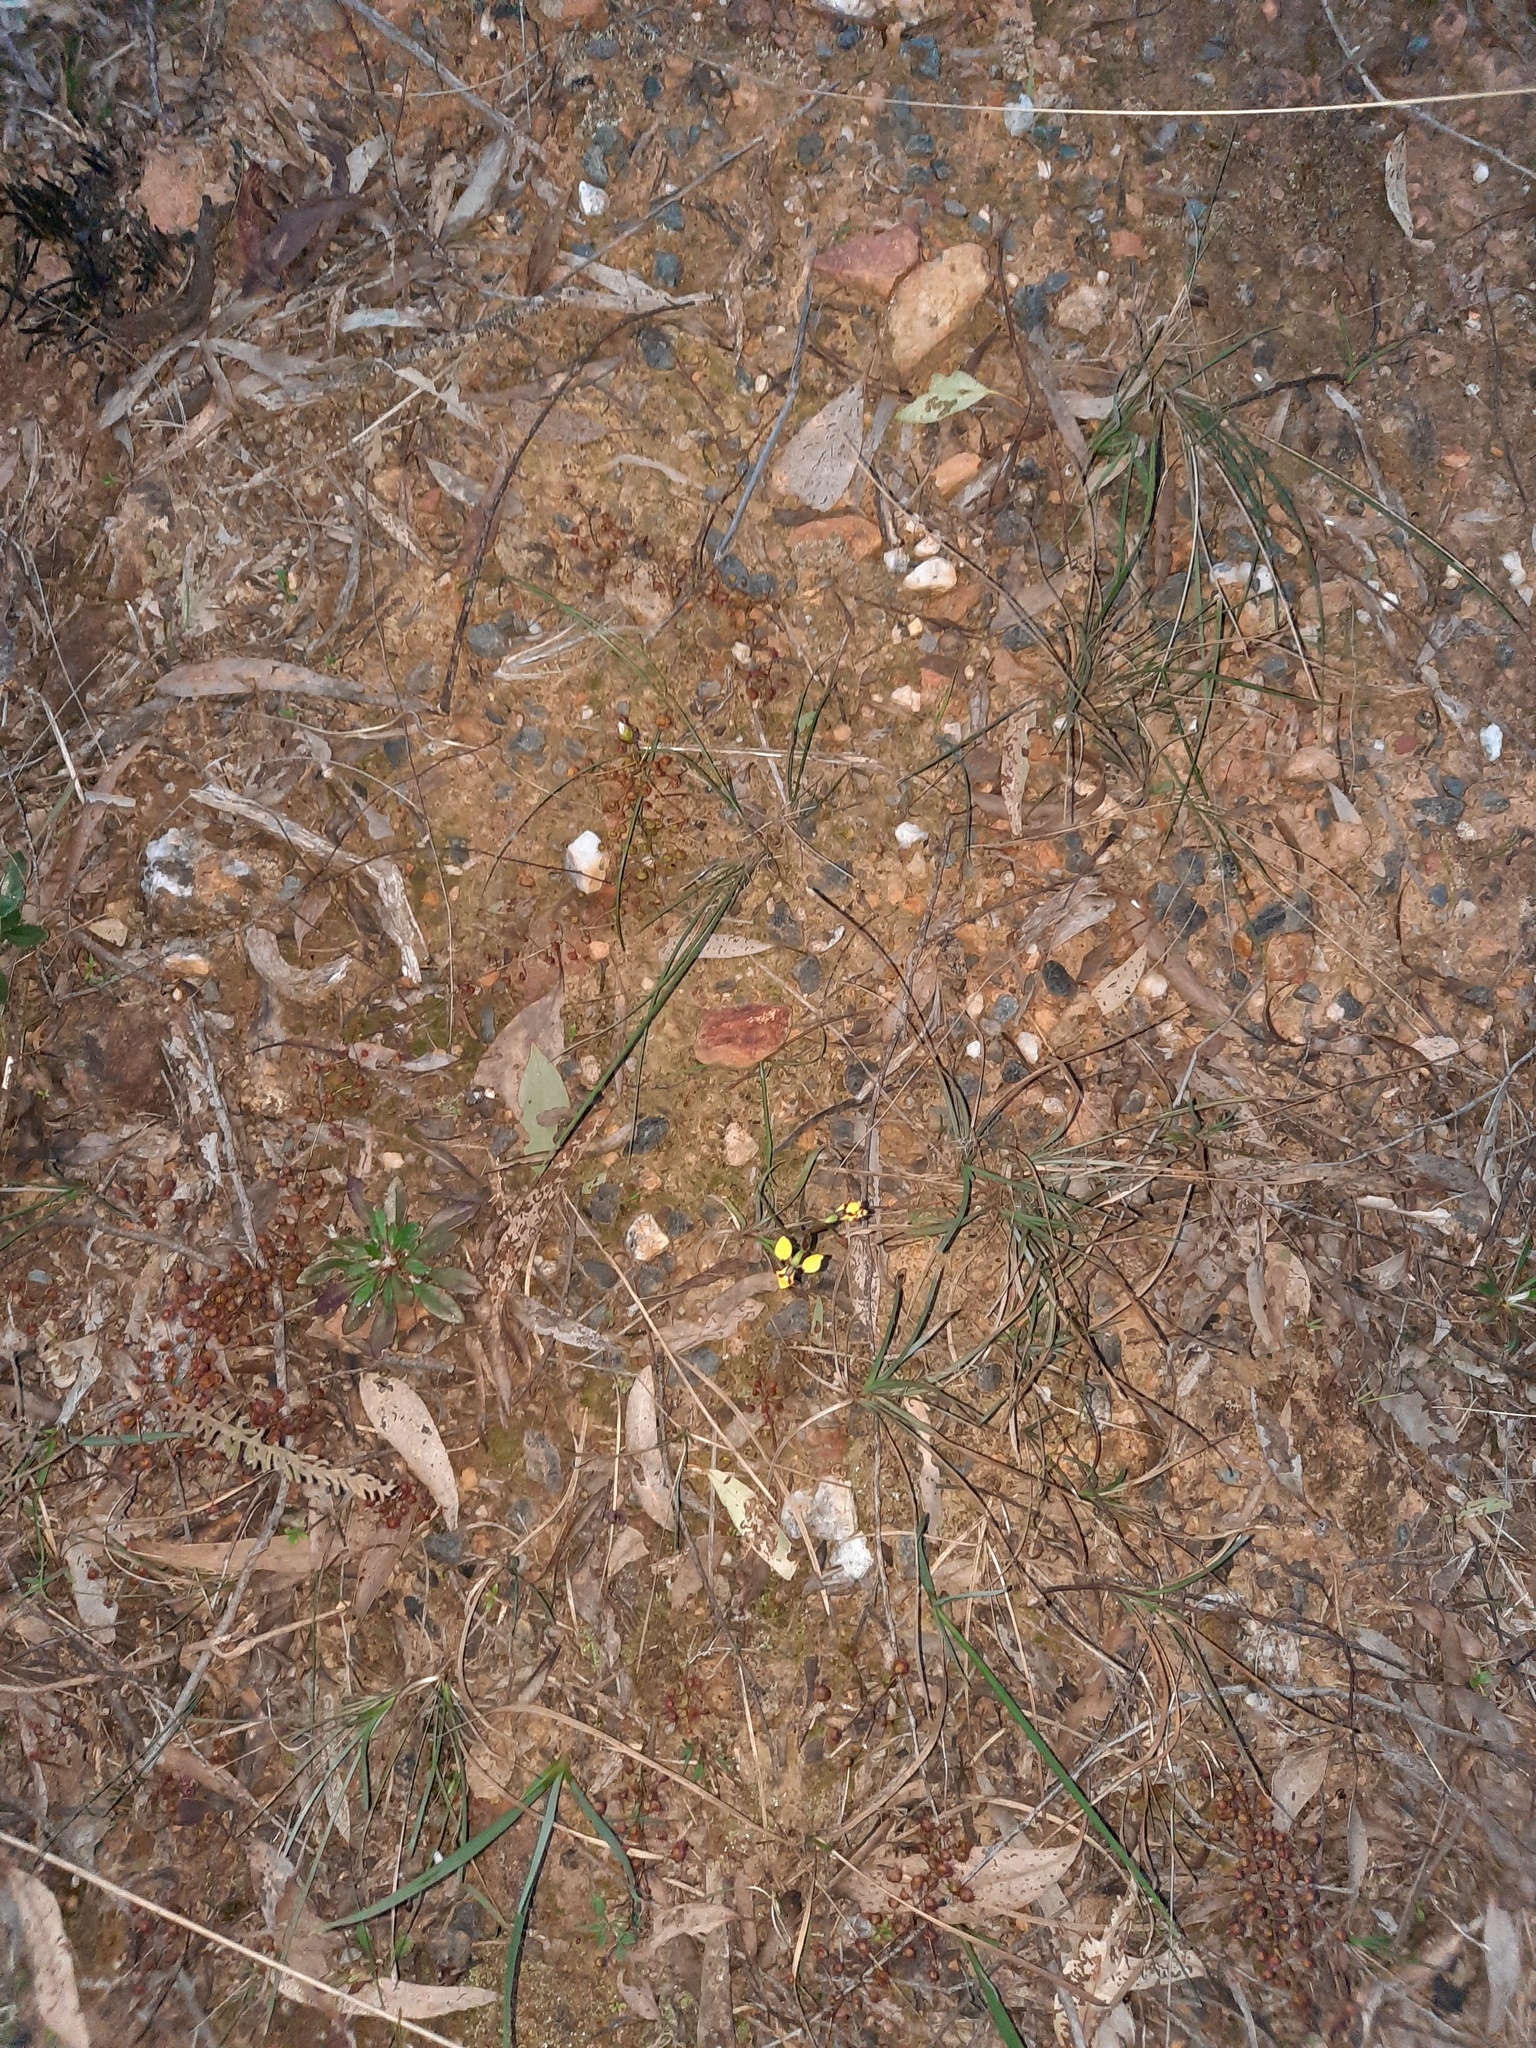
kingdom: Plantae
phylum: Tracheophyta
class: Liliopsida
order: Asparagales
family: Orchidaceae
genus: Diuris
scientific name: Diuris pardina
